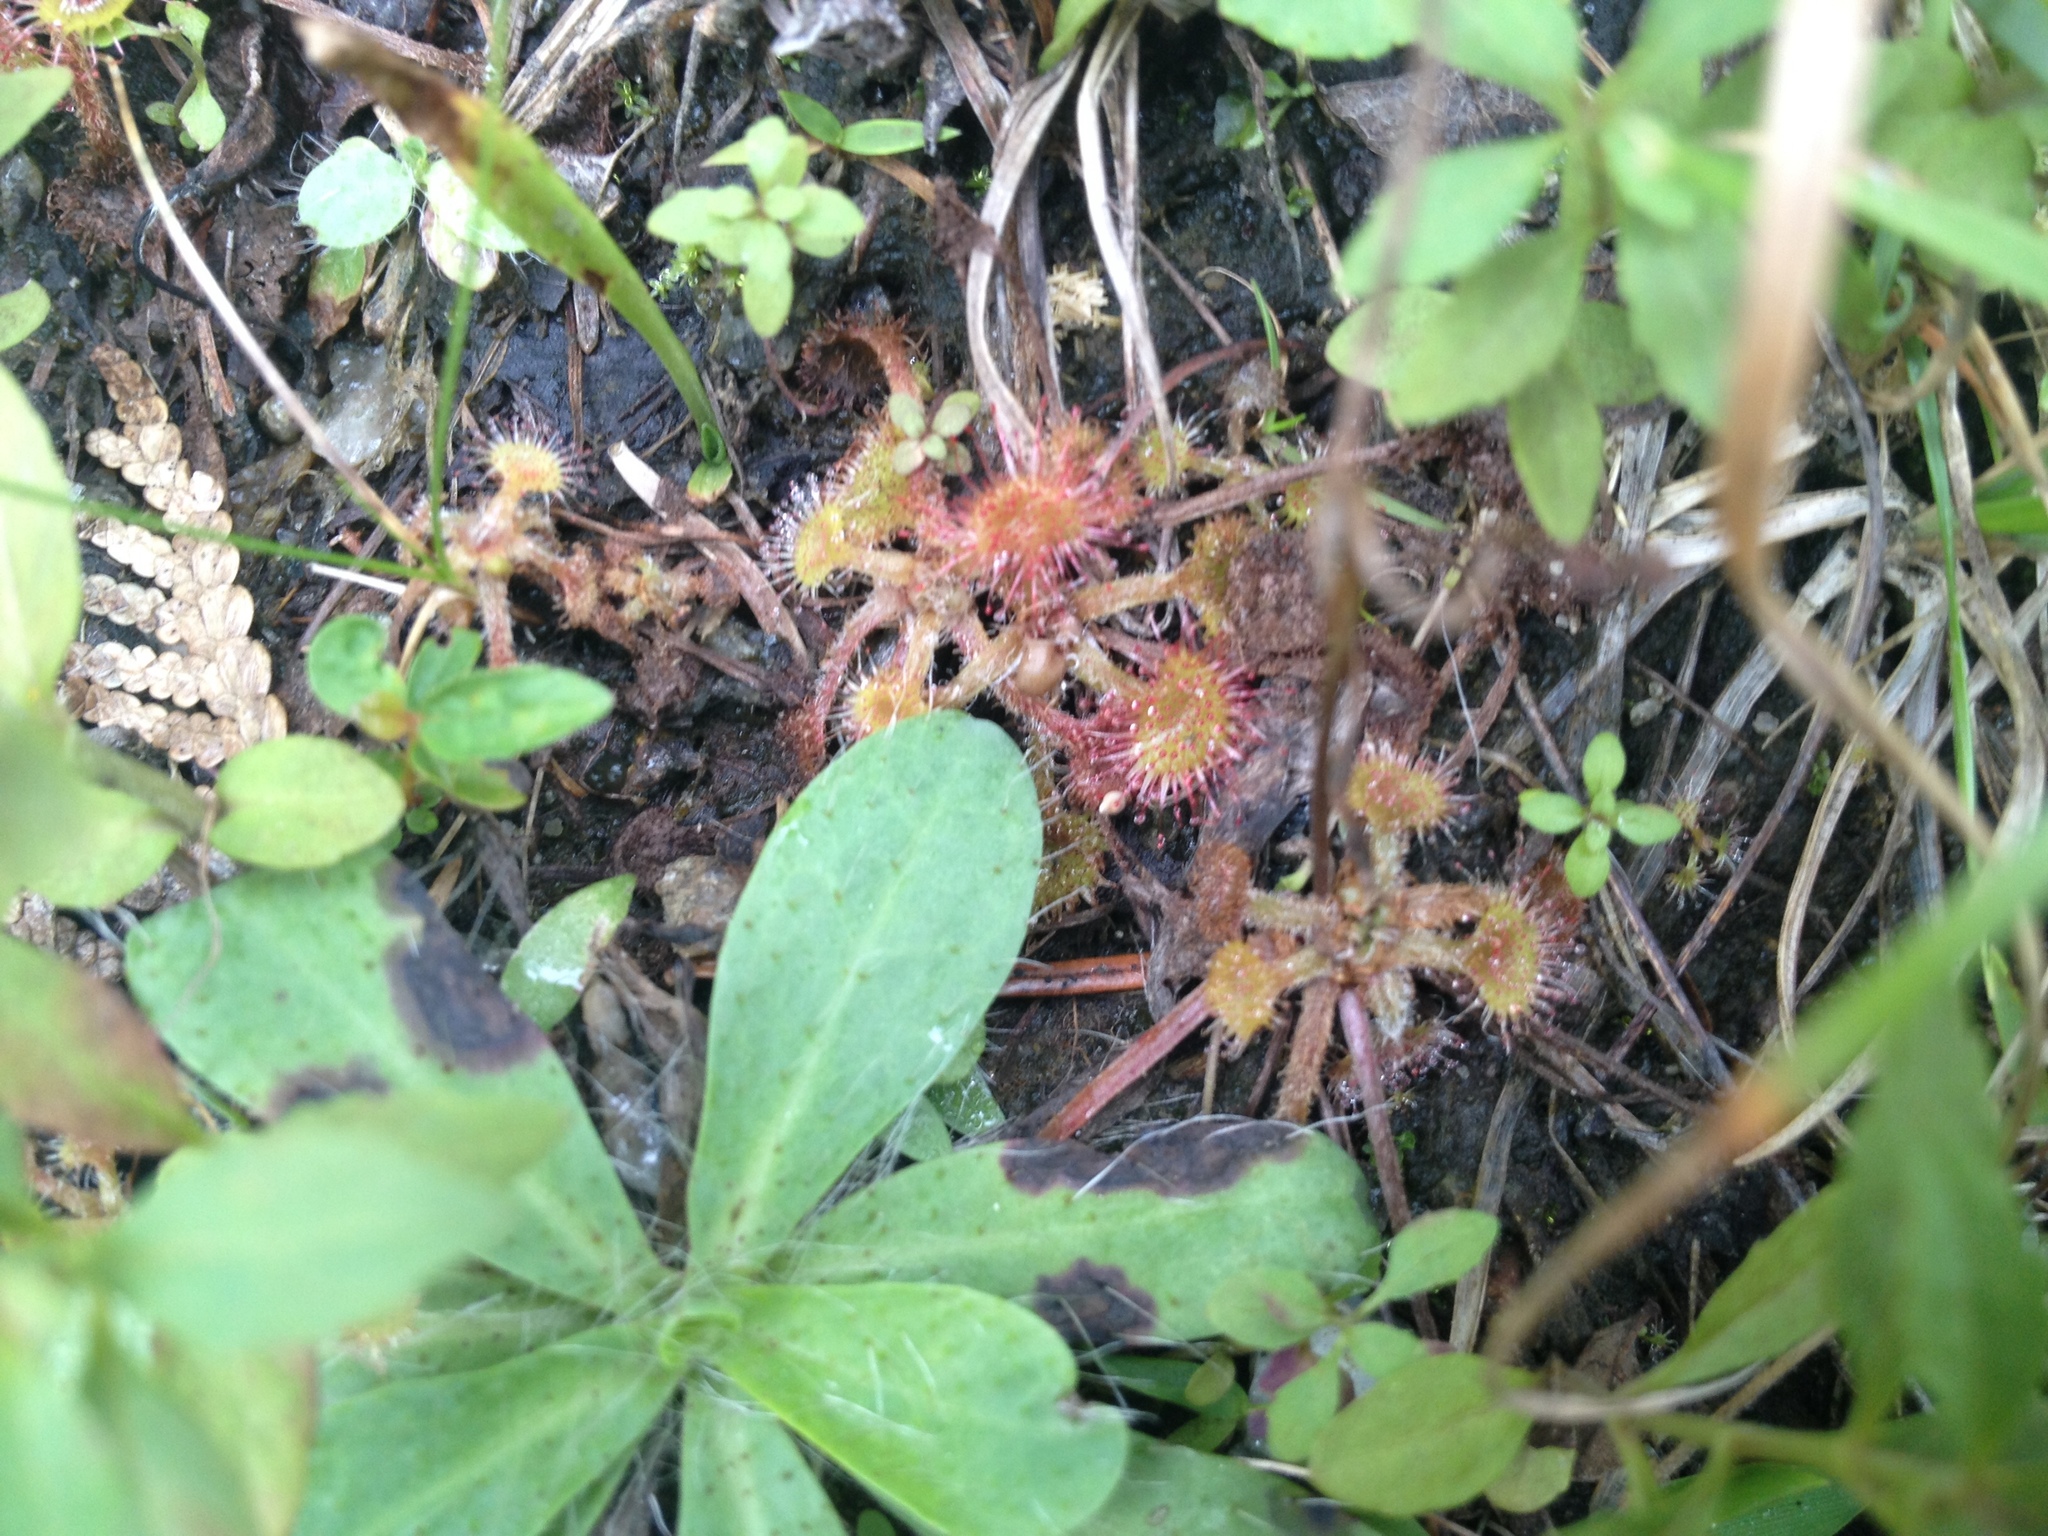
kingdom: Plantae
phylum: Tracheophyta
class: Magnoliopsida
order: Caryophyllales
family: Droseraceae
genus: Drosera
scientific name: Drosera rotundifolia
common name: Round-leaved sundew
